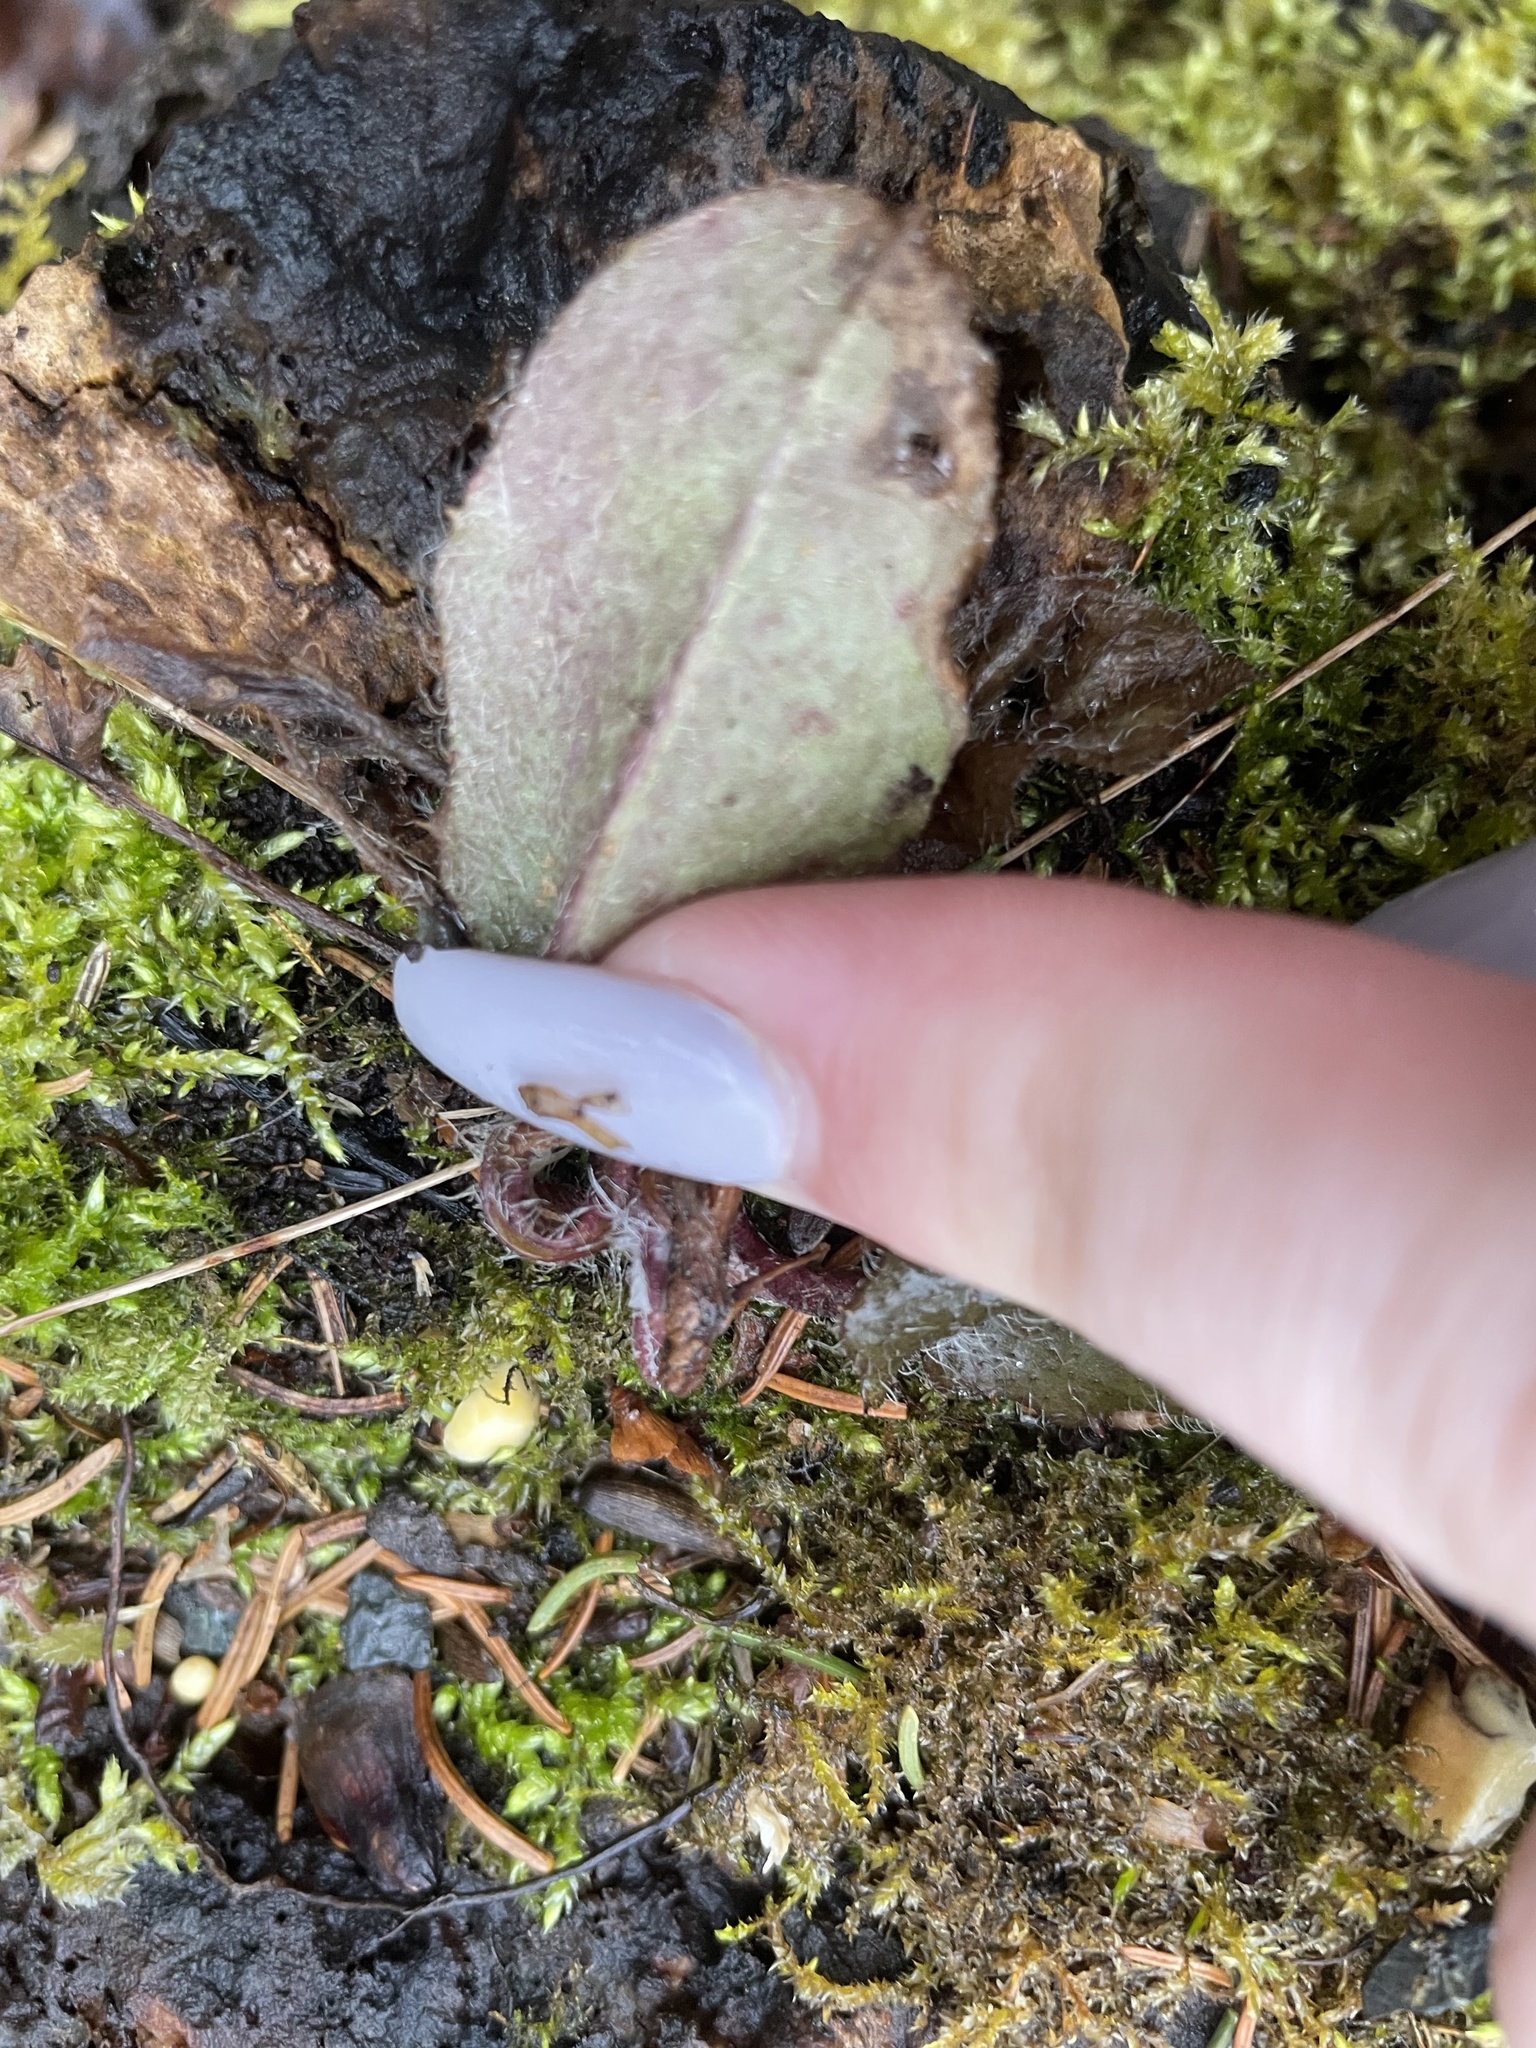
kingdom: Plantae
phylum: Tracheophyta
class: Magnoliopsida
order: Ericales
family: Ericaceae
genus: Epigaea
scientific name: Epigaea repens
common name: Gravelroot
